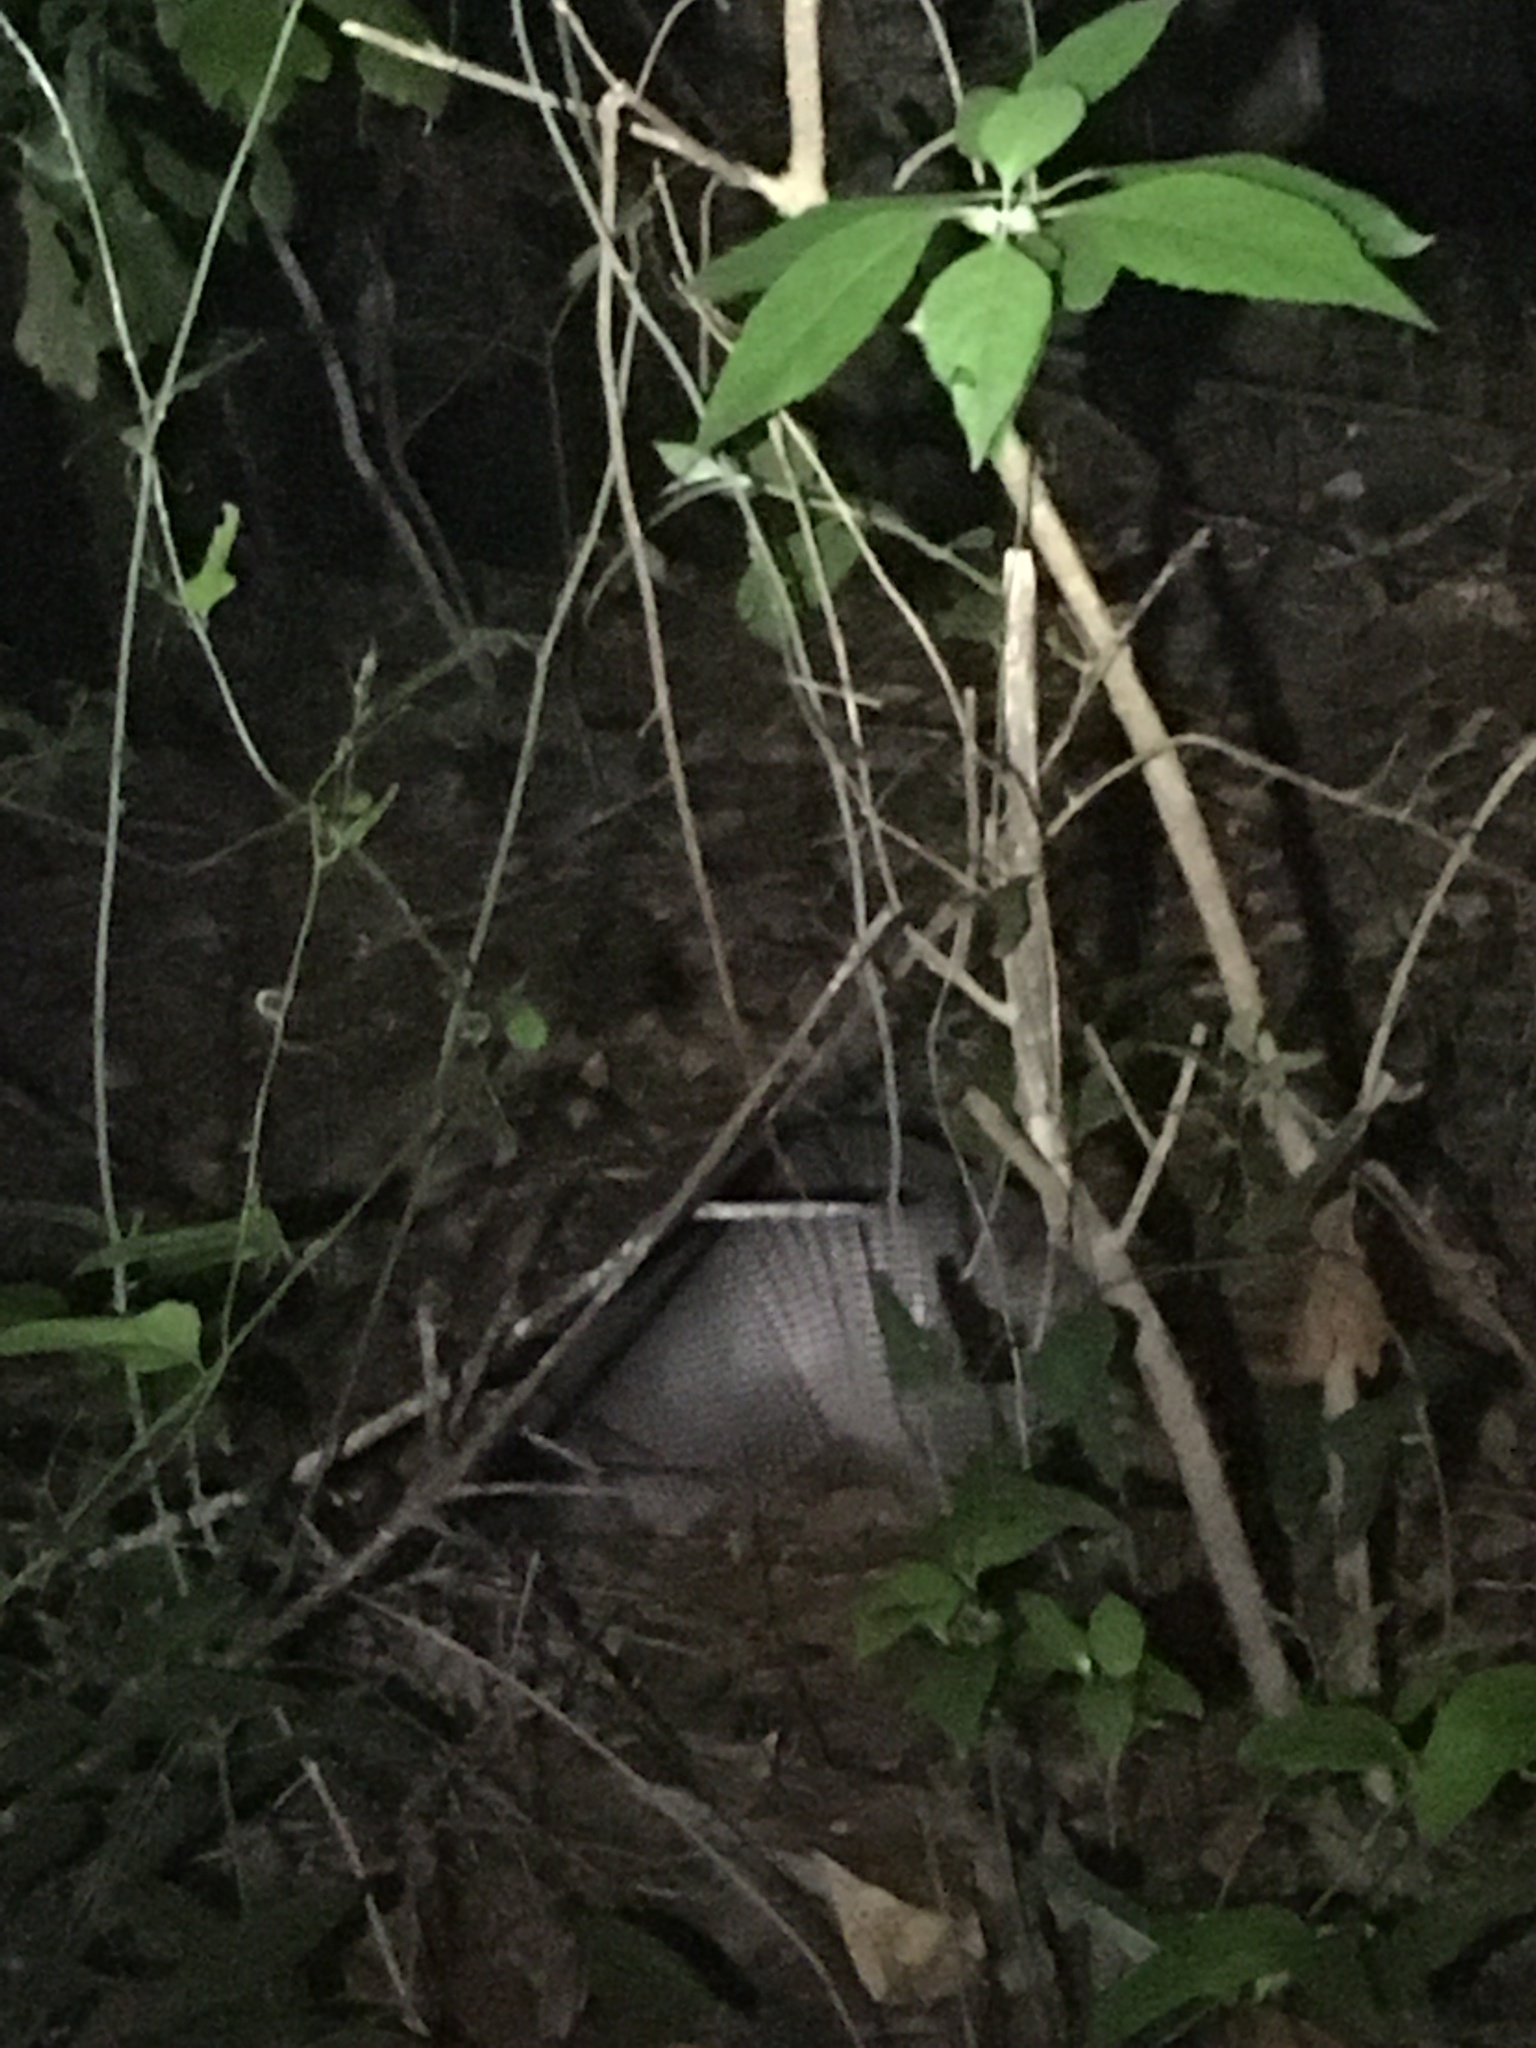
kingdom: Animalia
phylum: Chordata
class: Mammalia
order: Cingulata
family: Dasypodidae
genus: Dasypus
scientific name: Dasypus novemcinctus
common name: Nine-banded armadillo
